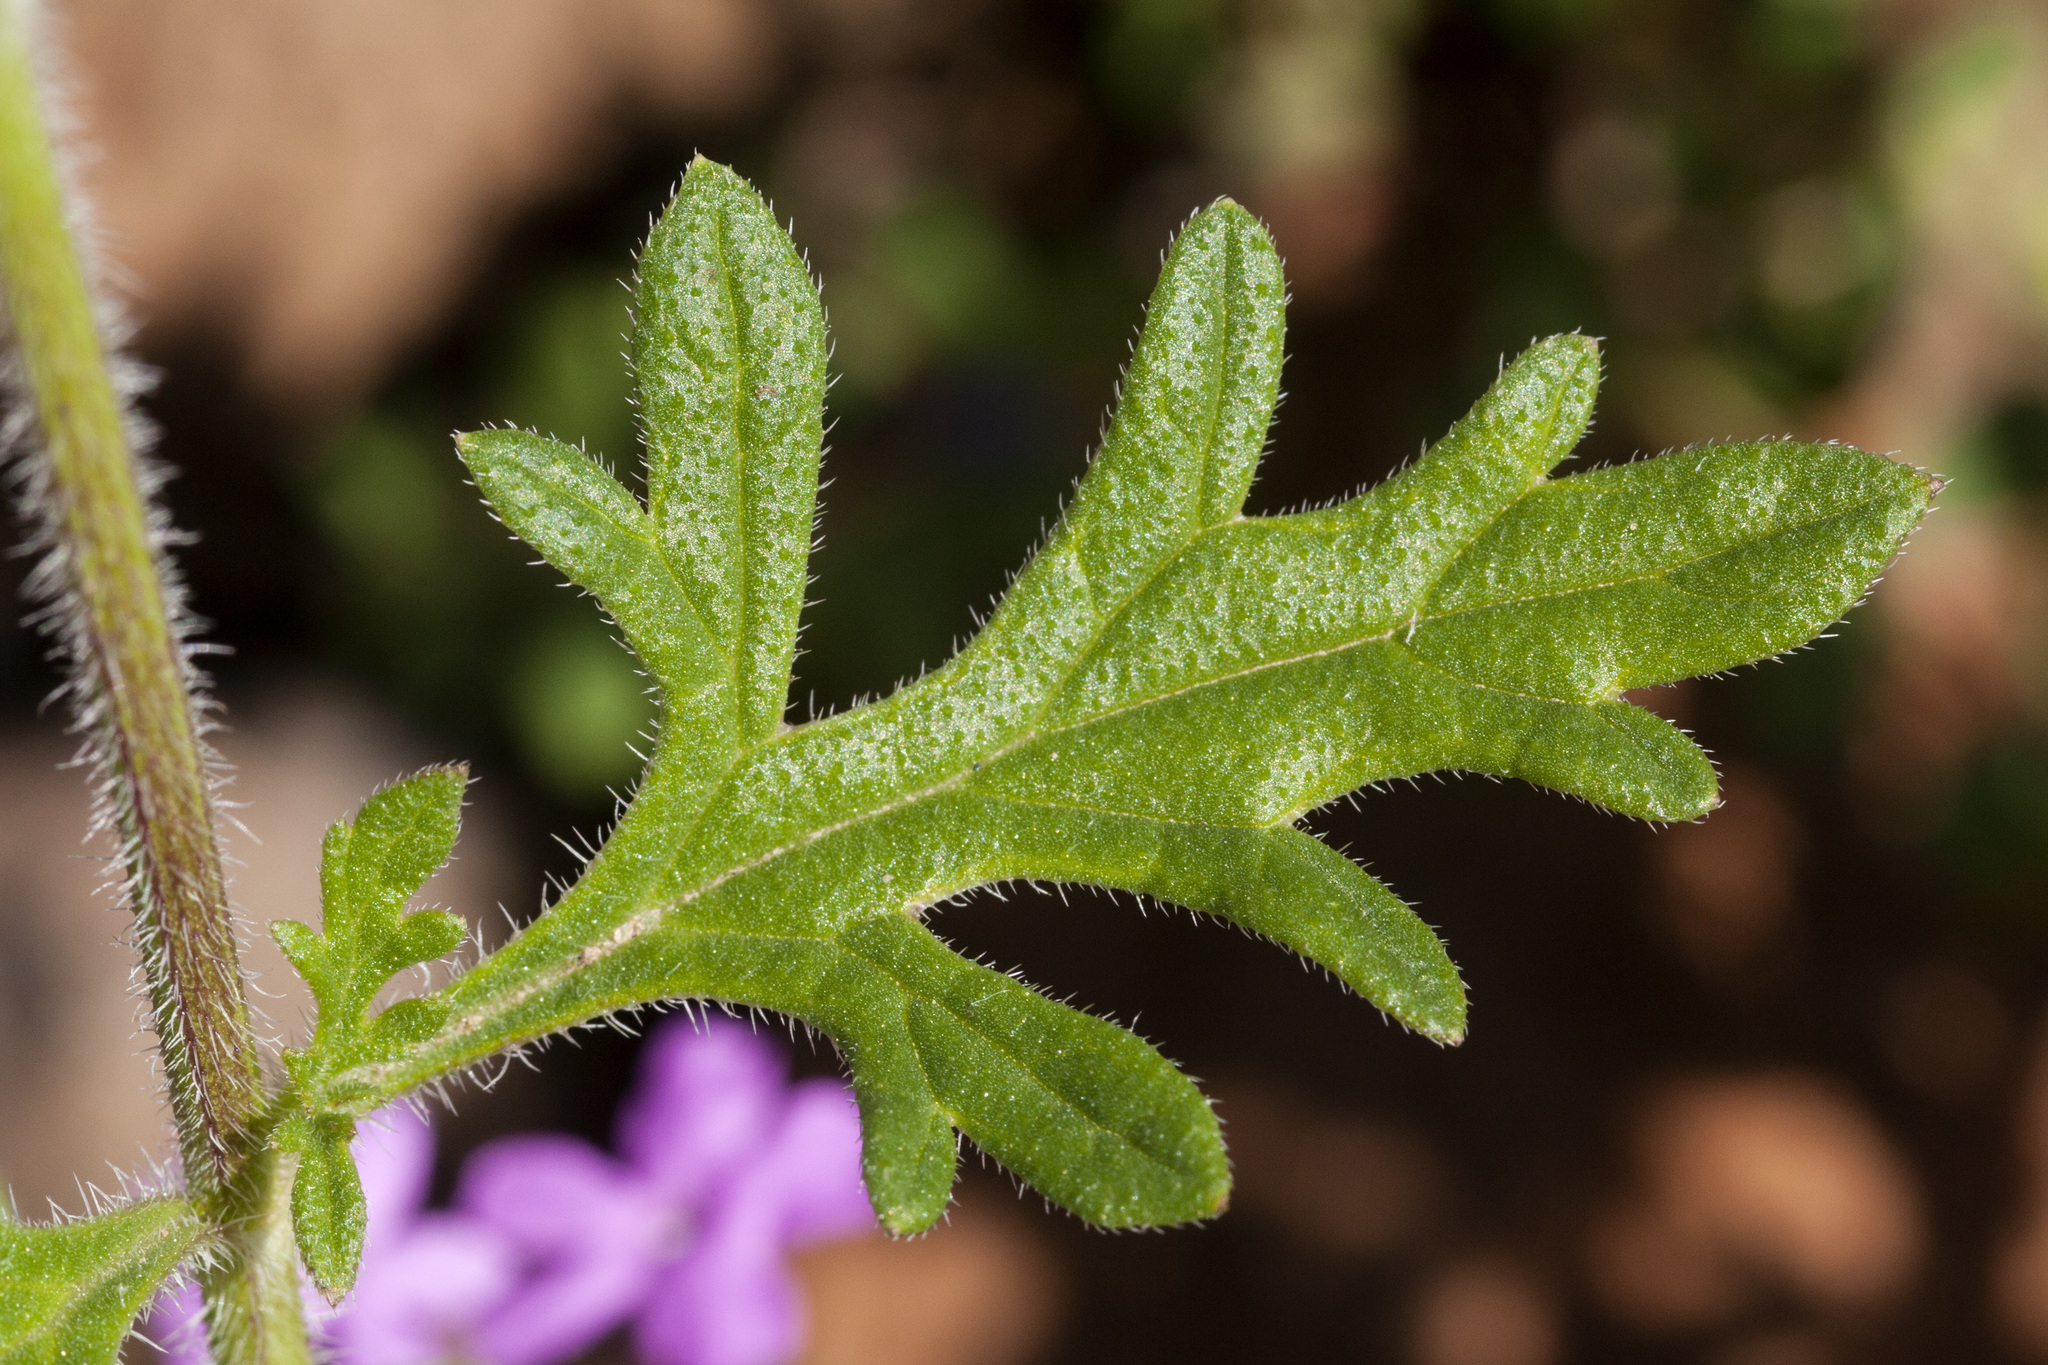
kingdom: Plantae
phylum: Tracheophyta
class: Magnoliopsida
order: Lamiales
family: Verbenaceae
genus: Verbena
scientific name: Verbena chiricahensis
